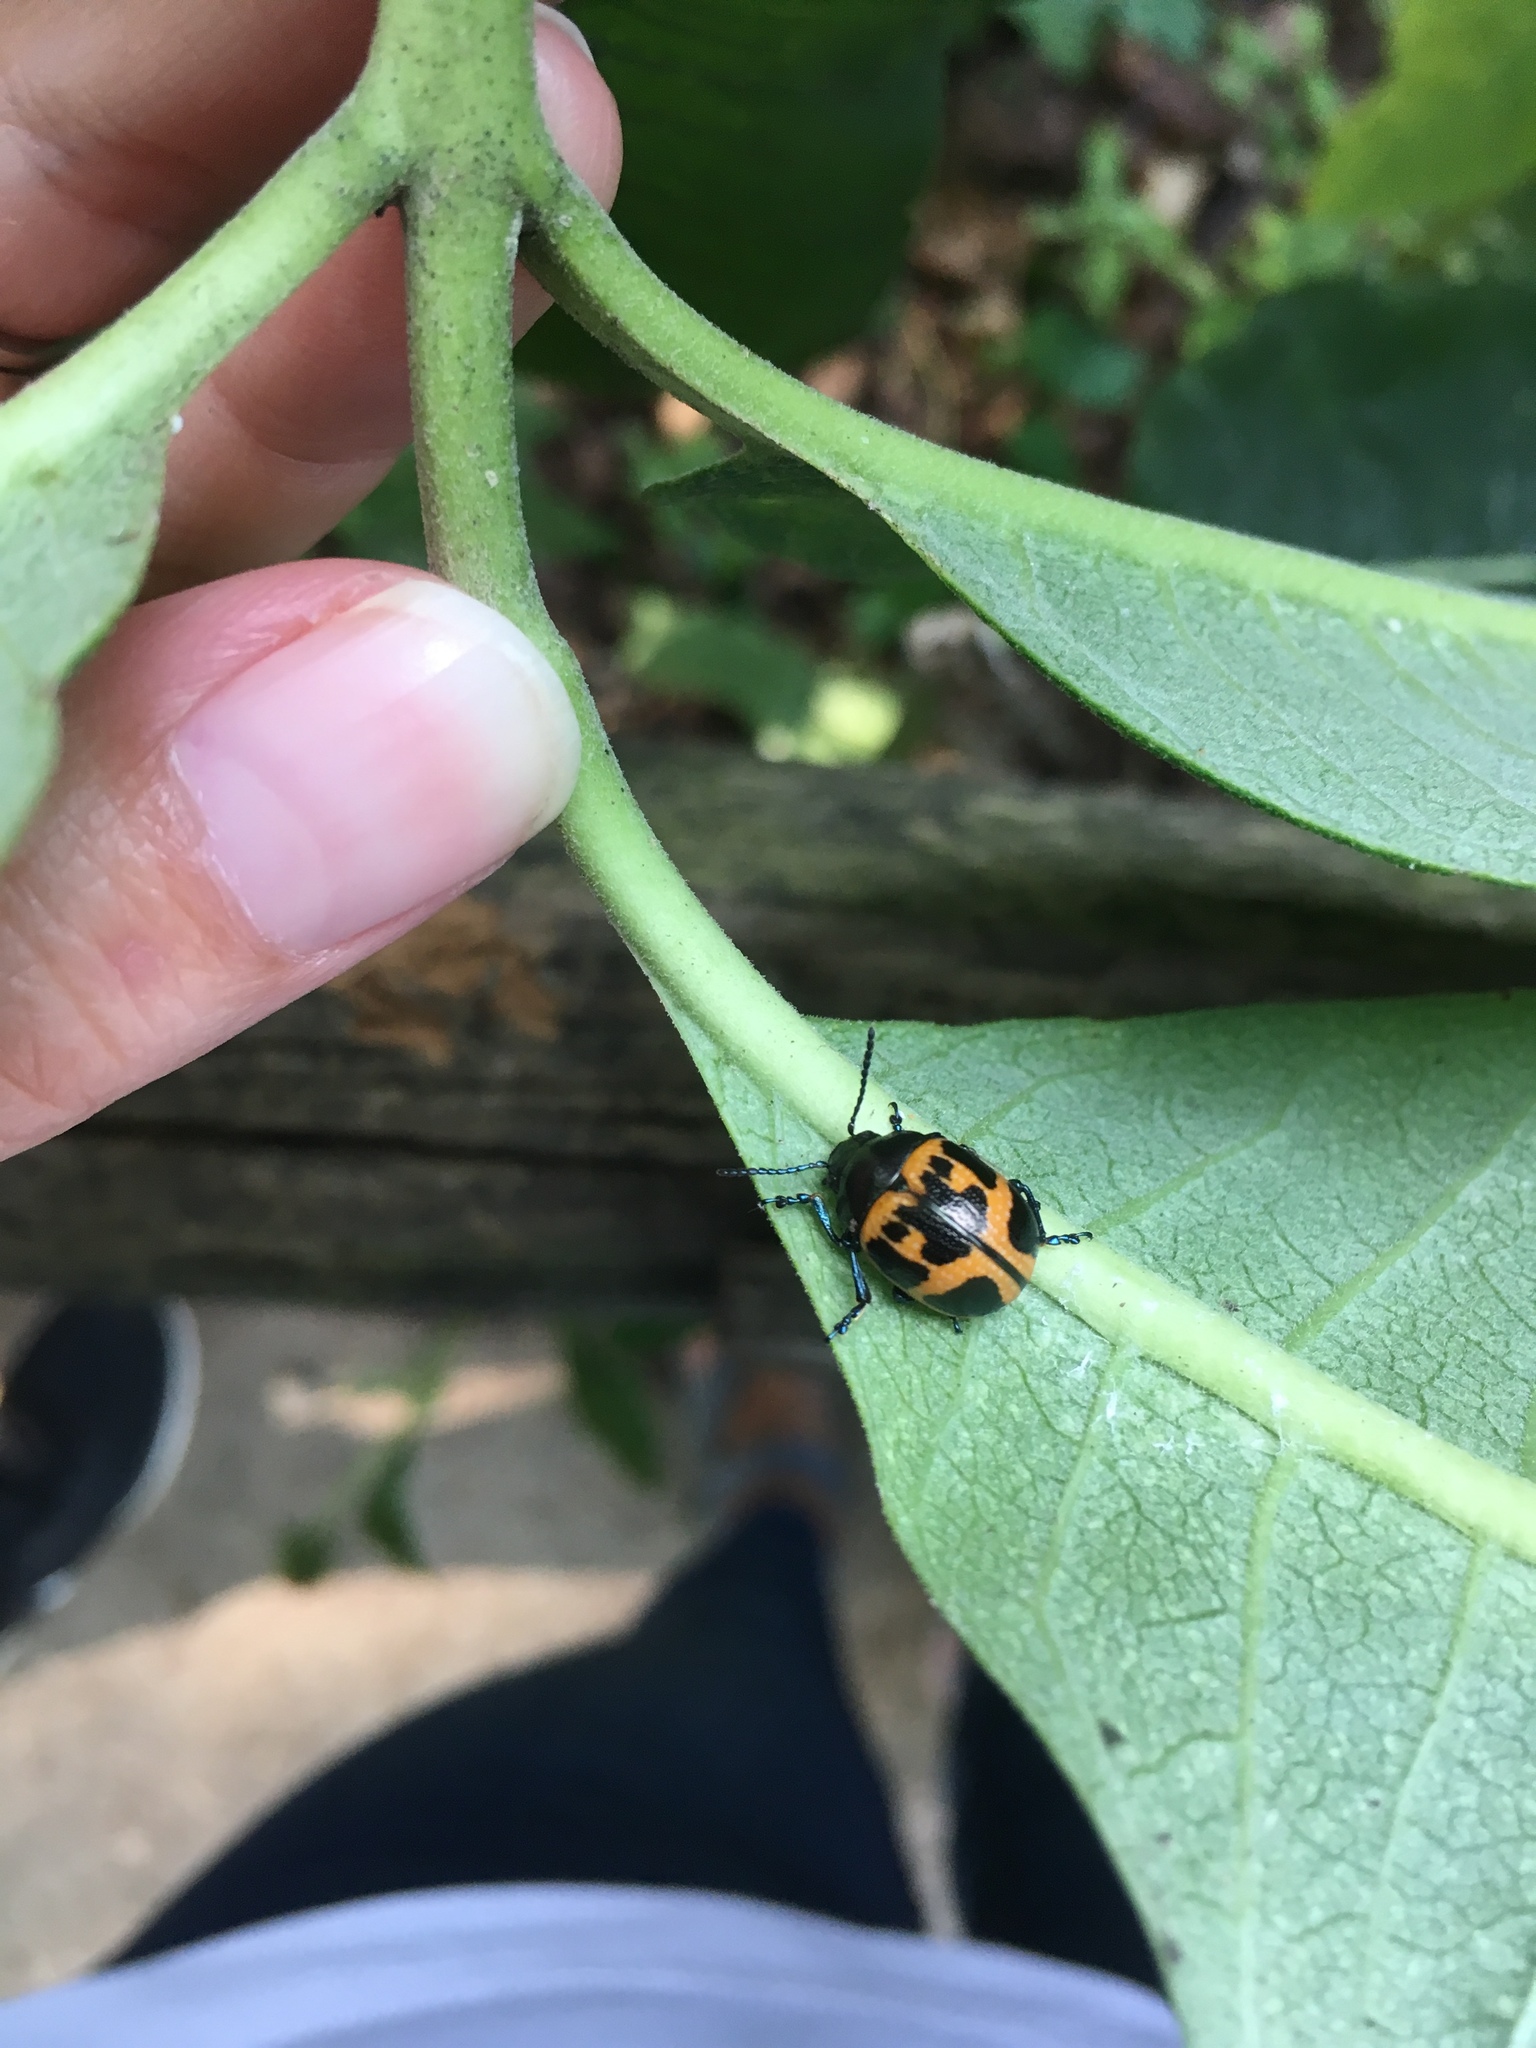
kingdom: Animalia
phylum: Arthropoda
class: Insecta
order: Coleoptera
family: Chrysomelidae
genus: Labidomera
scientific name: Labidomera clivicollis
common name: Swamp milkweed leaf beetle
